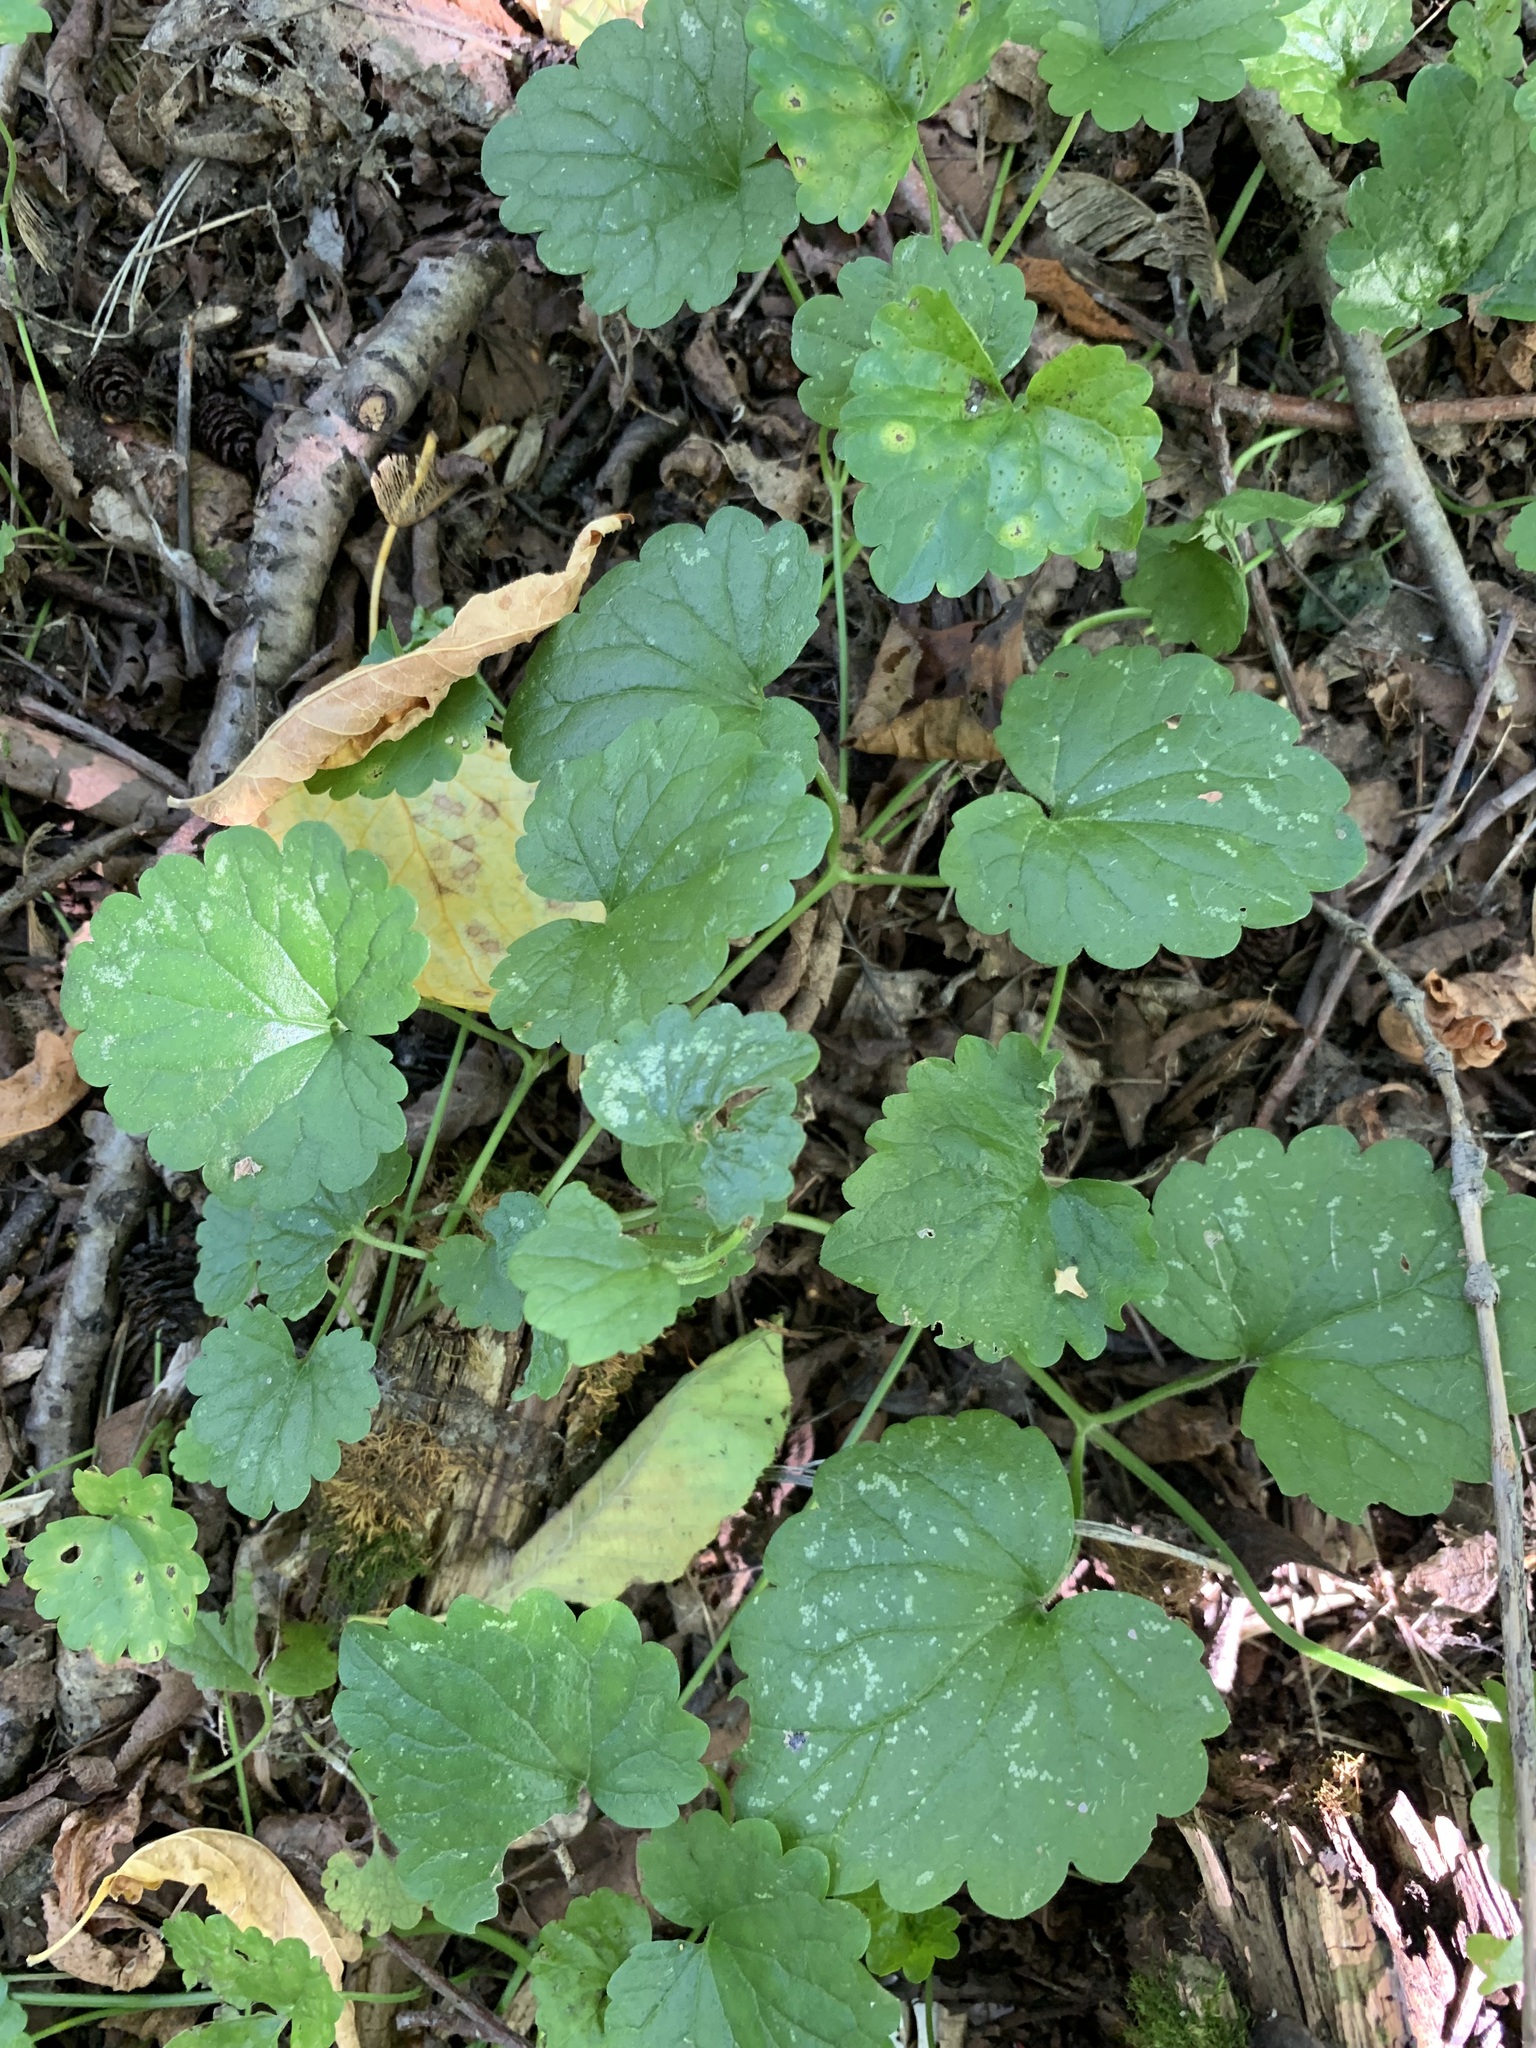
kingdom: Plantae
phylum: Tracheophyta
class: Magnoliopsida
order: Lamiales
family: Lamiaceae
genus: Glechoma
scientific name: Glechoma hederacea
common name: Ground ivy
